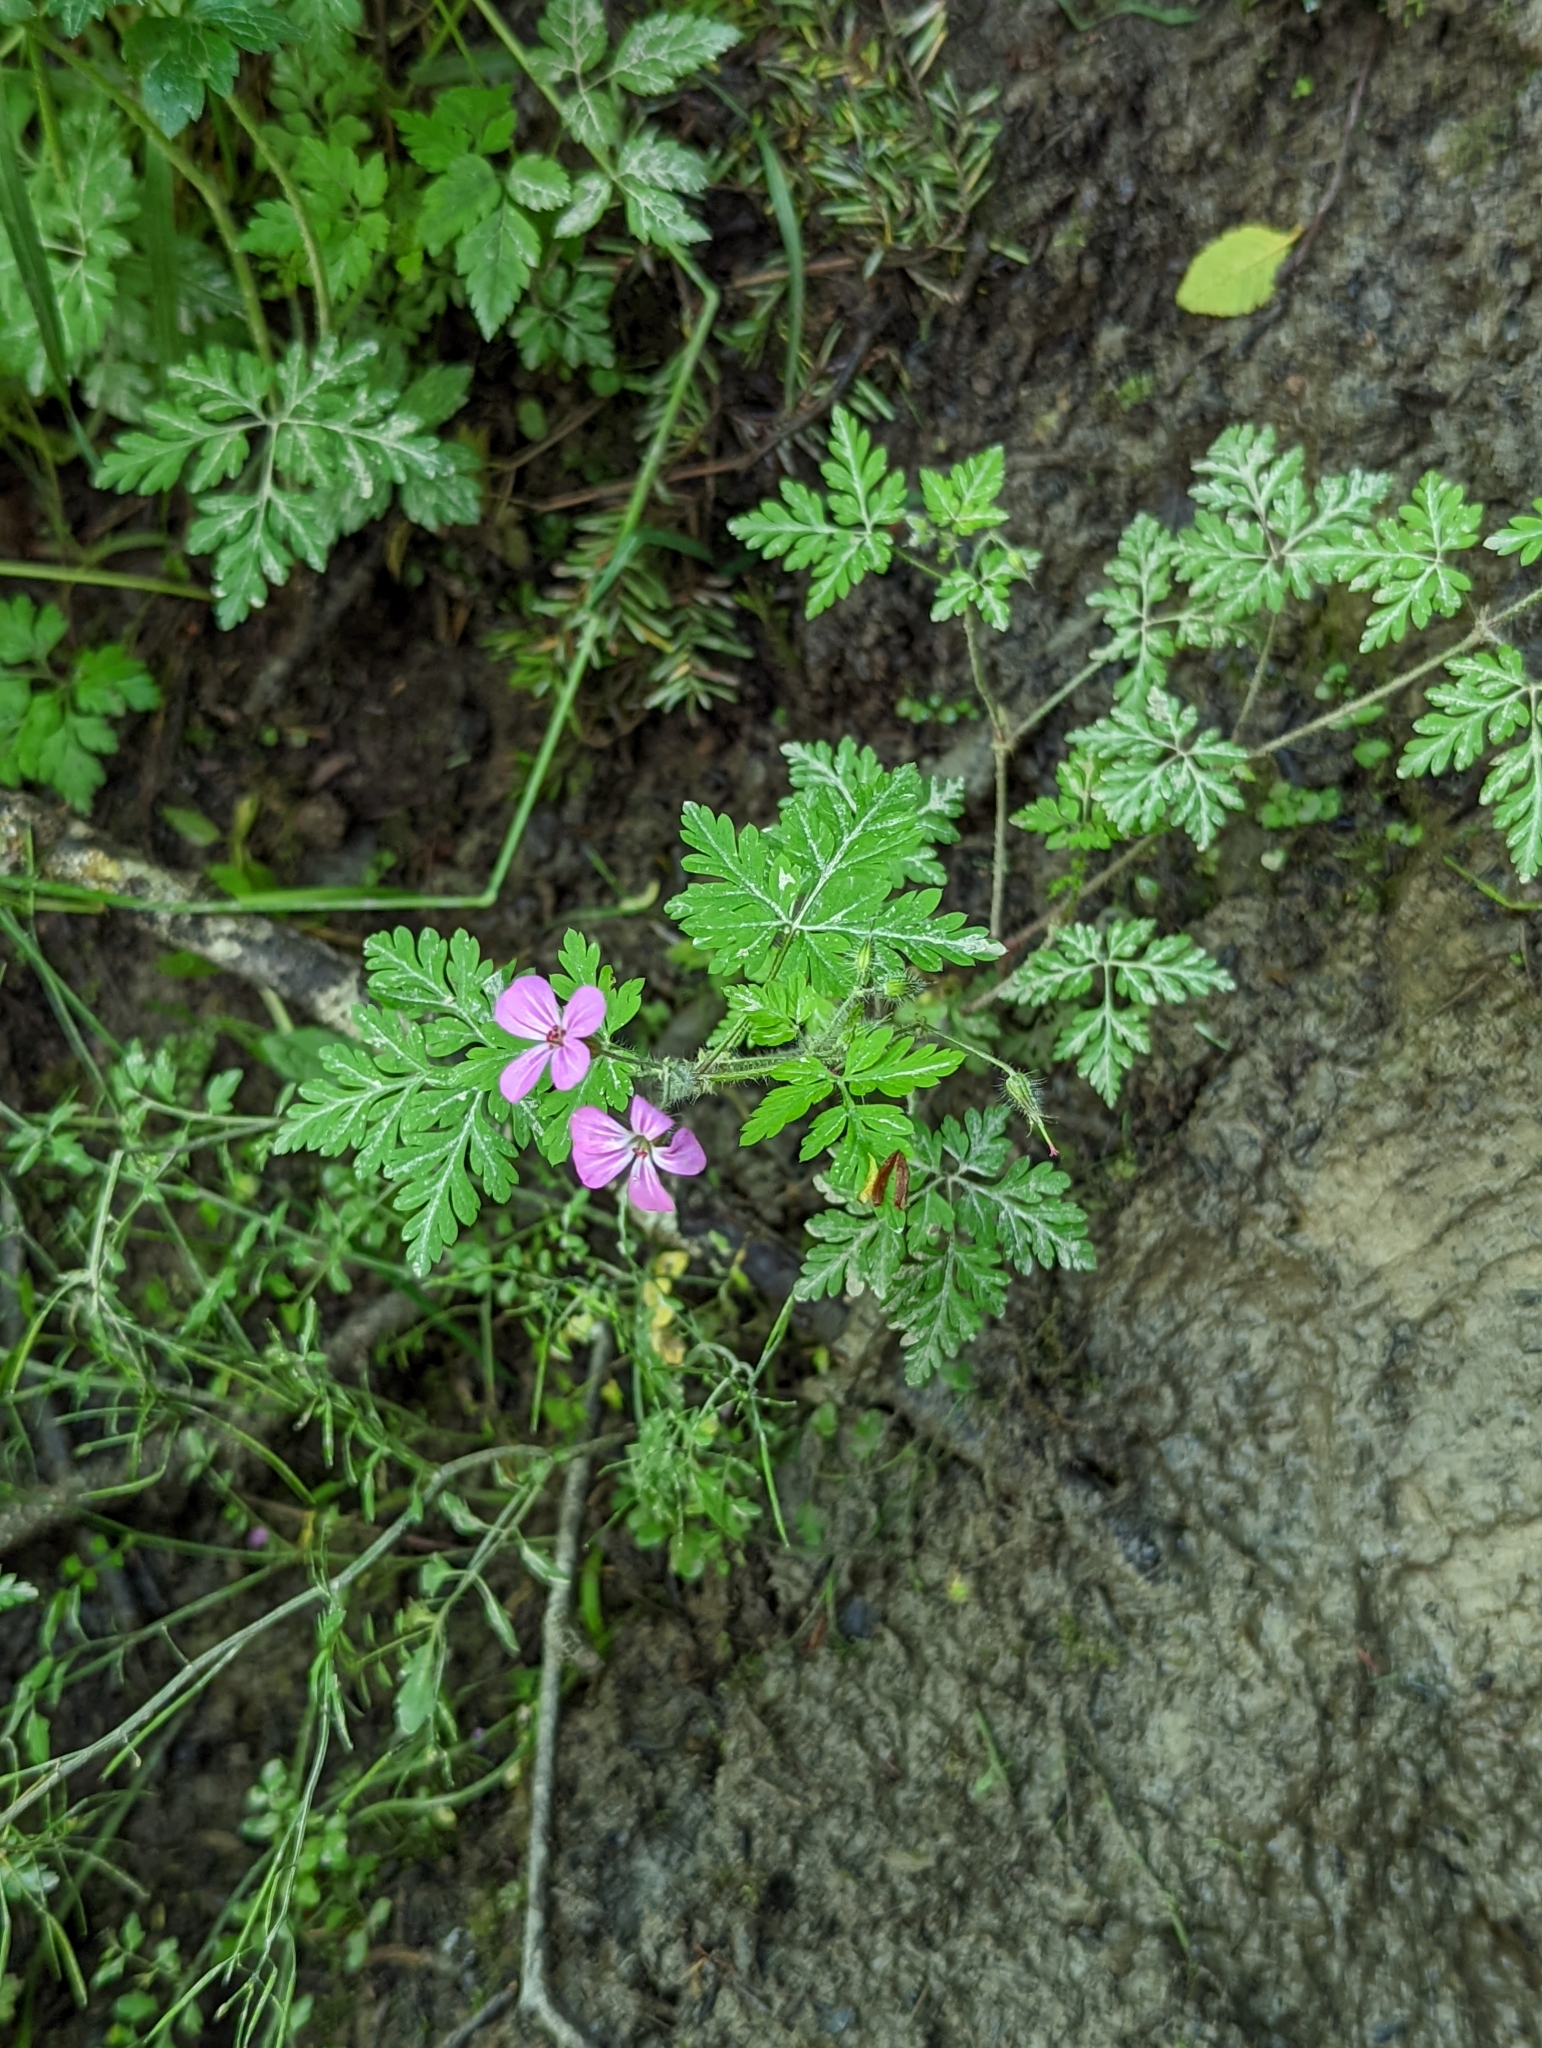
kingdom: Plantae
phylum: Tracheophyta
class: Magnoliopsida
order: Geraniales
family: Geraniaceae
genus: Geranium
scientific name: Geranium robertianum
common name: Herb-robert
